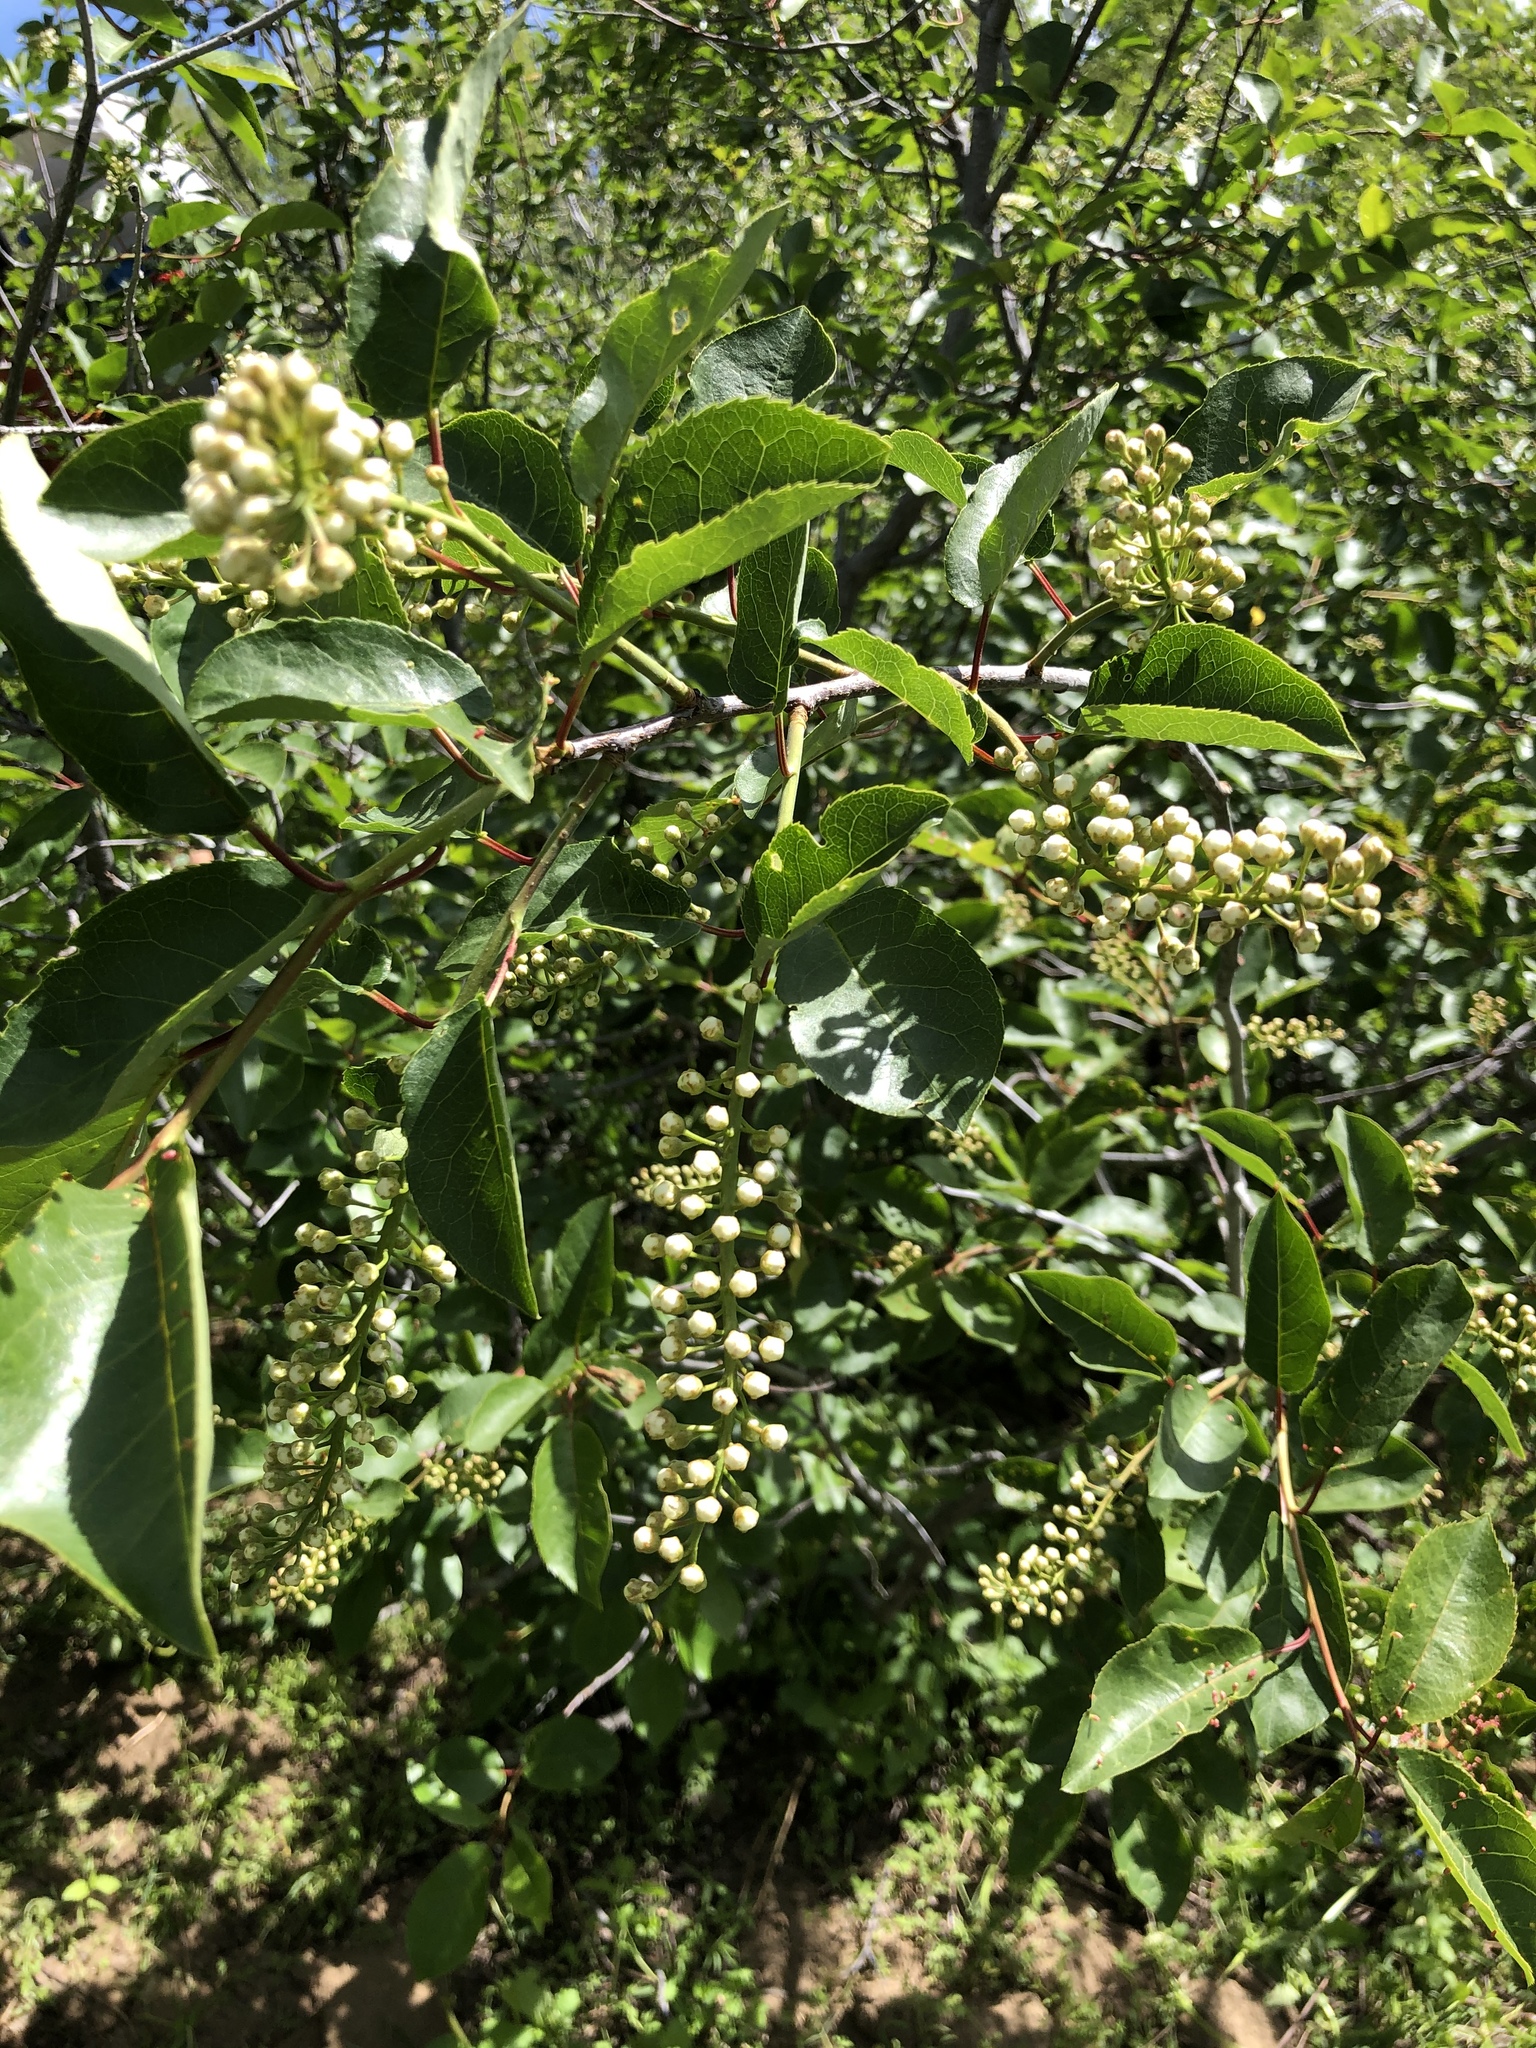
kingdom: Plantae
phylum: Tracheophyta
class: Magnoliopsida
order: Rosales
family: Rosaceae
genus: Prunus
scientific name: Prunus virginiana
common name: Chokecherry
